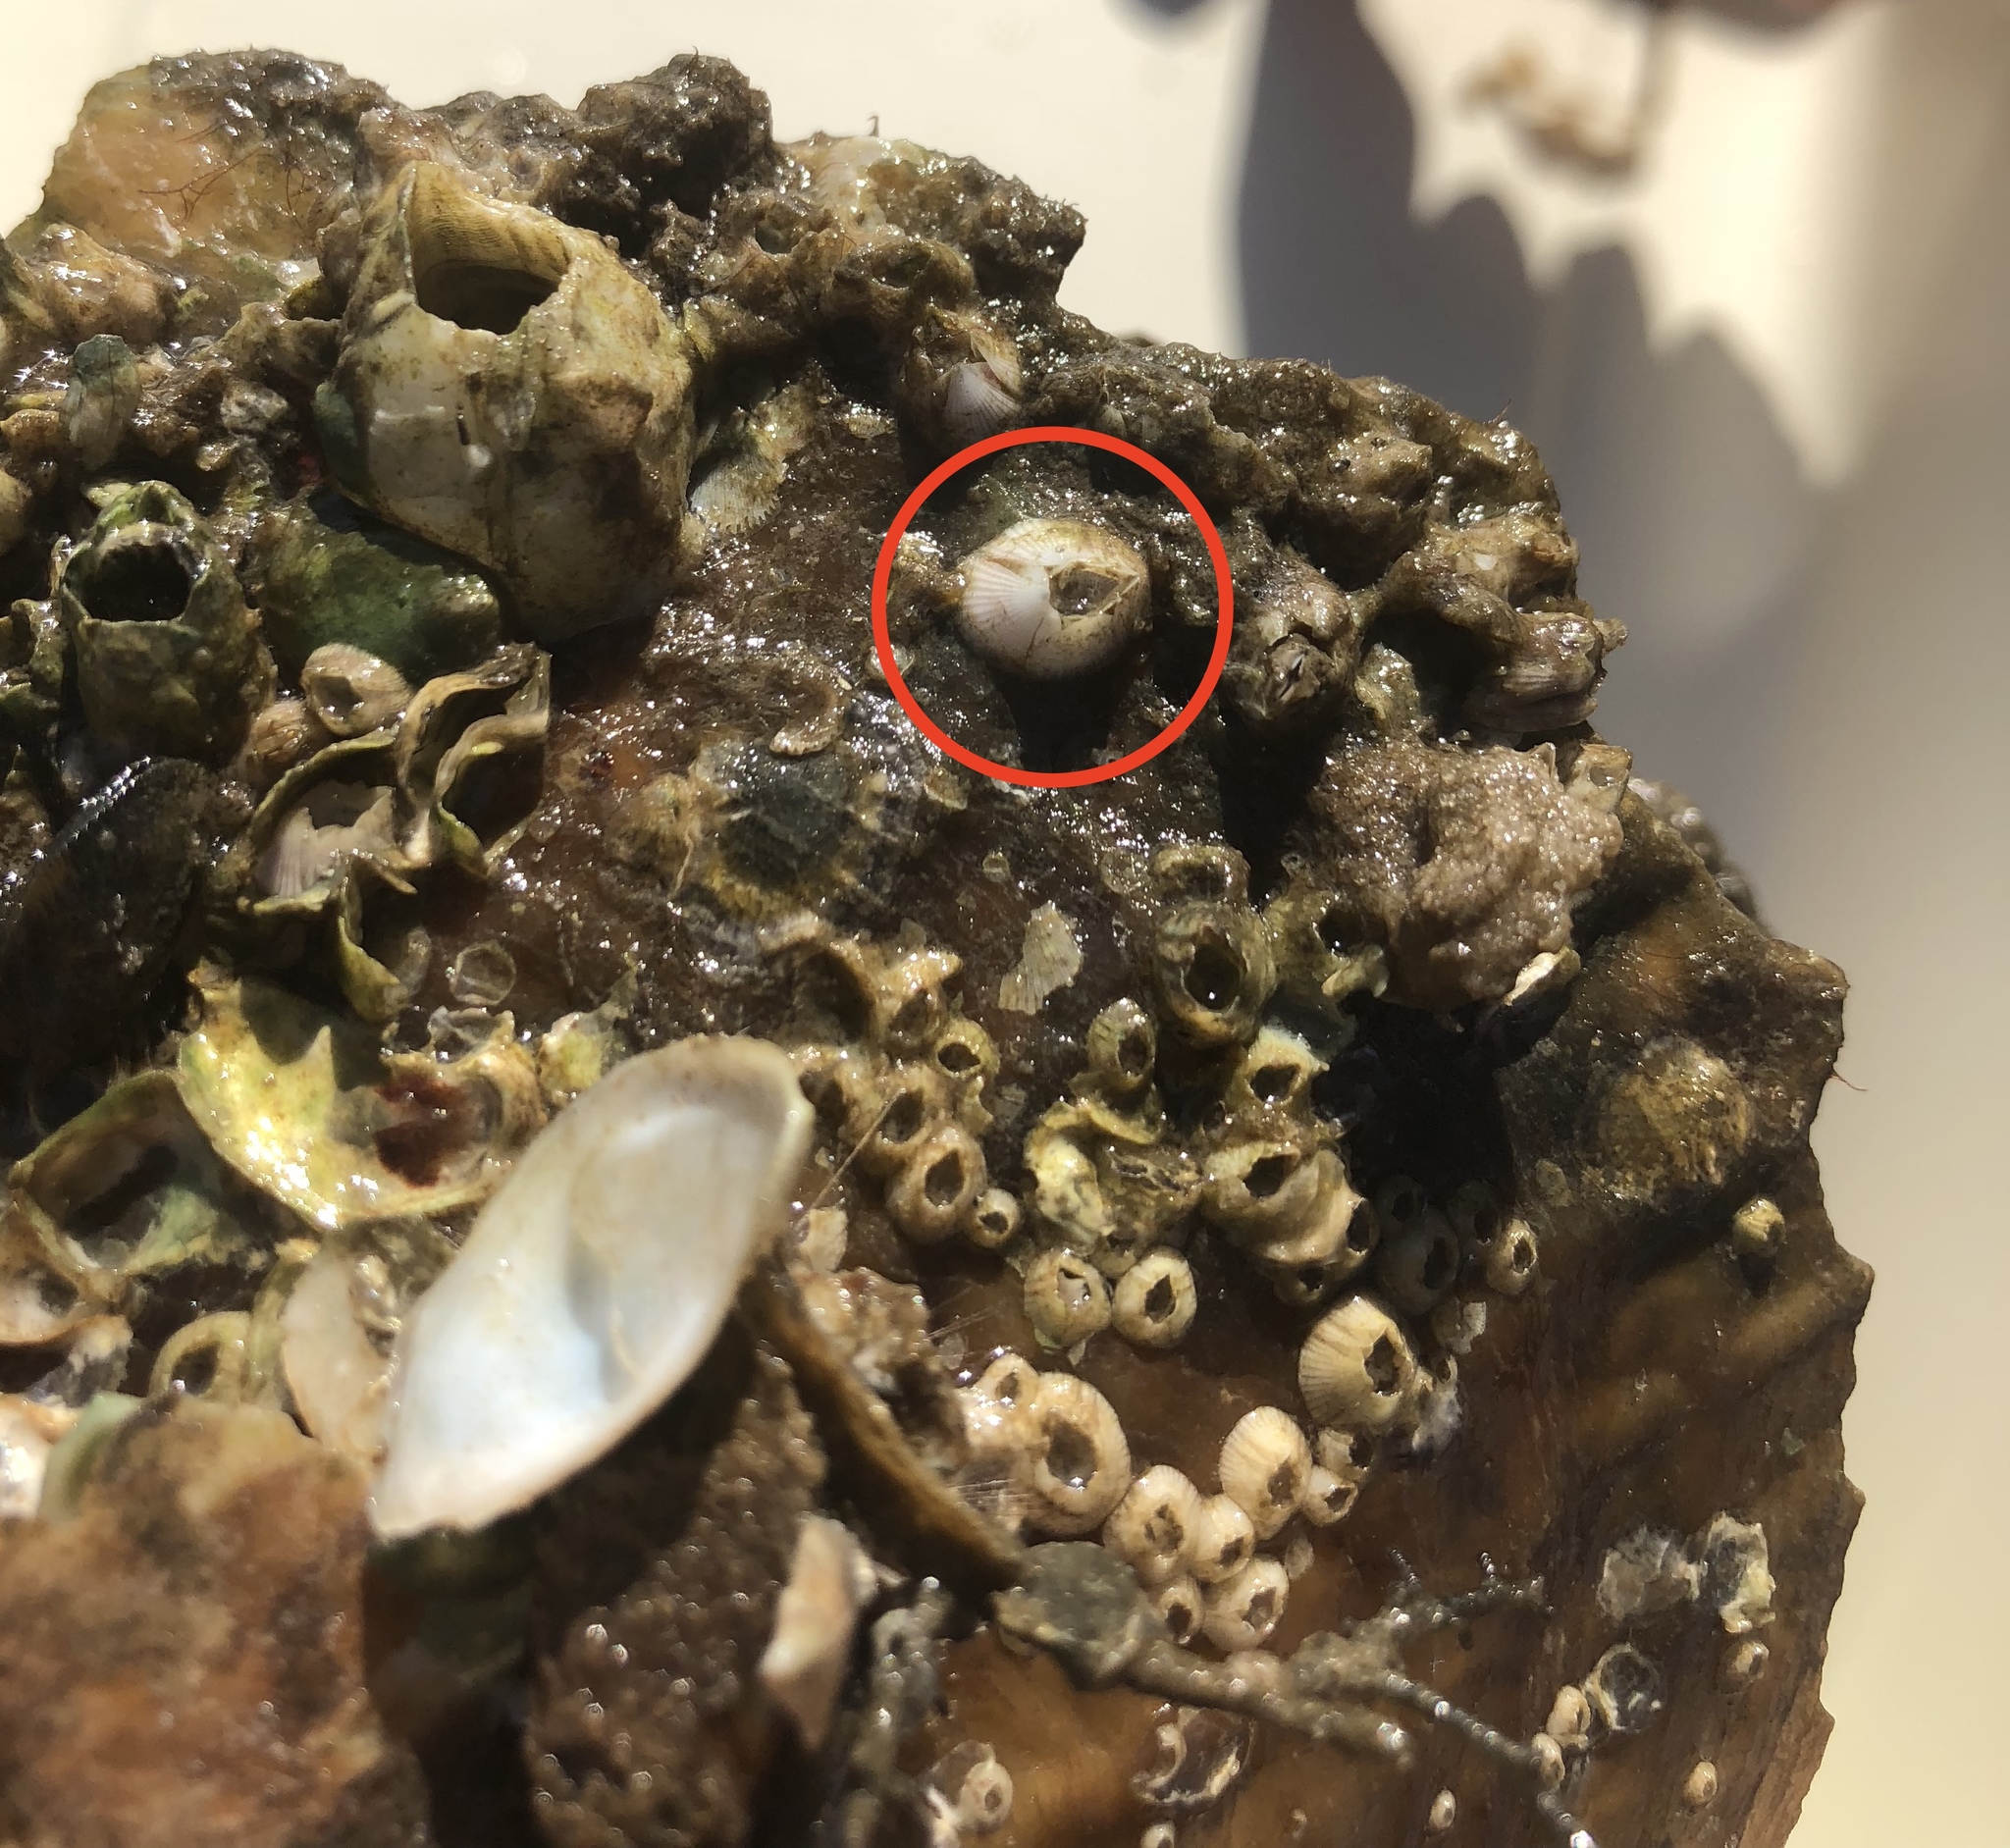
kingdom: Animalia
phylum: Arthropoda
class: Maxillopoda
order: Sessilia
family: Balanidae
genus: Amphibalanus
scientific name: Amphibalanus venustus
